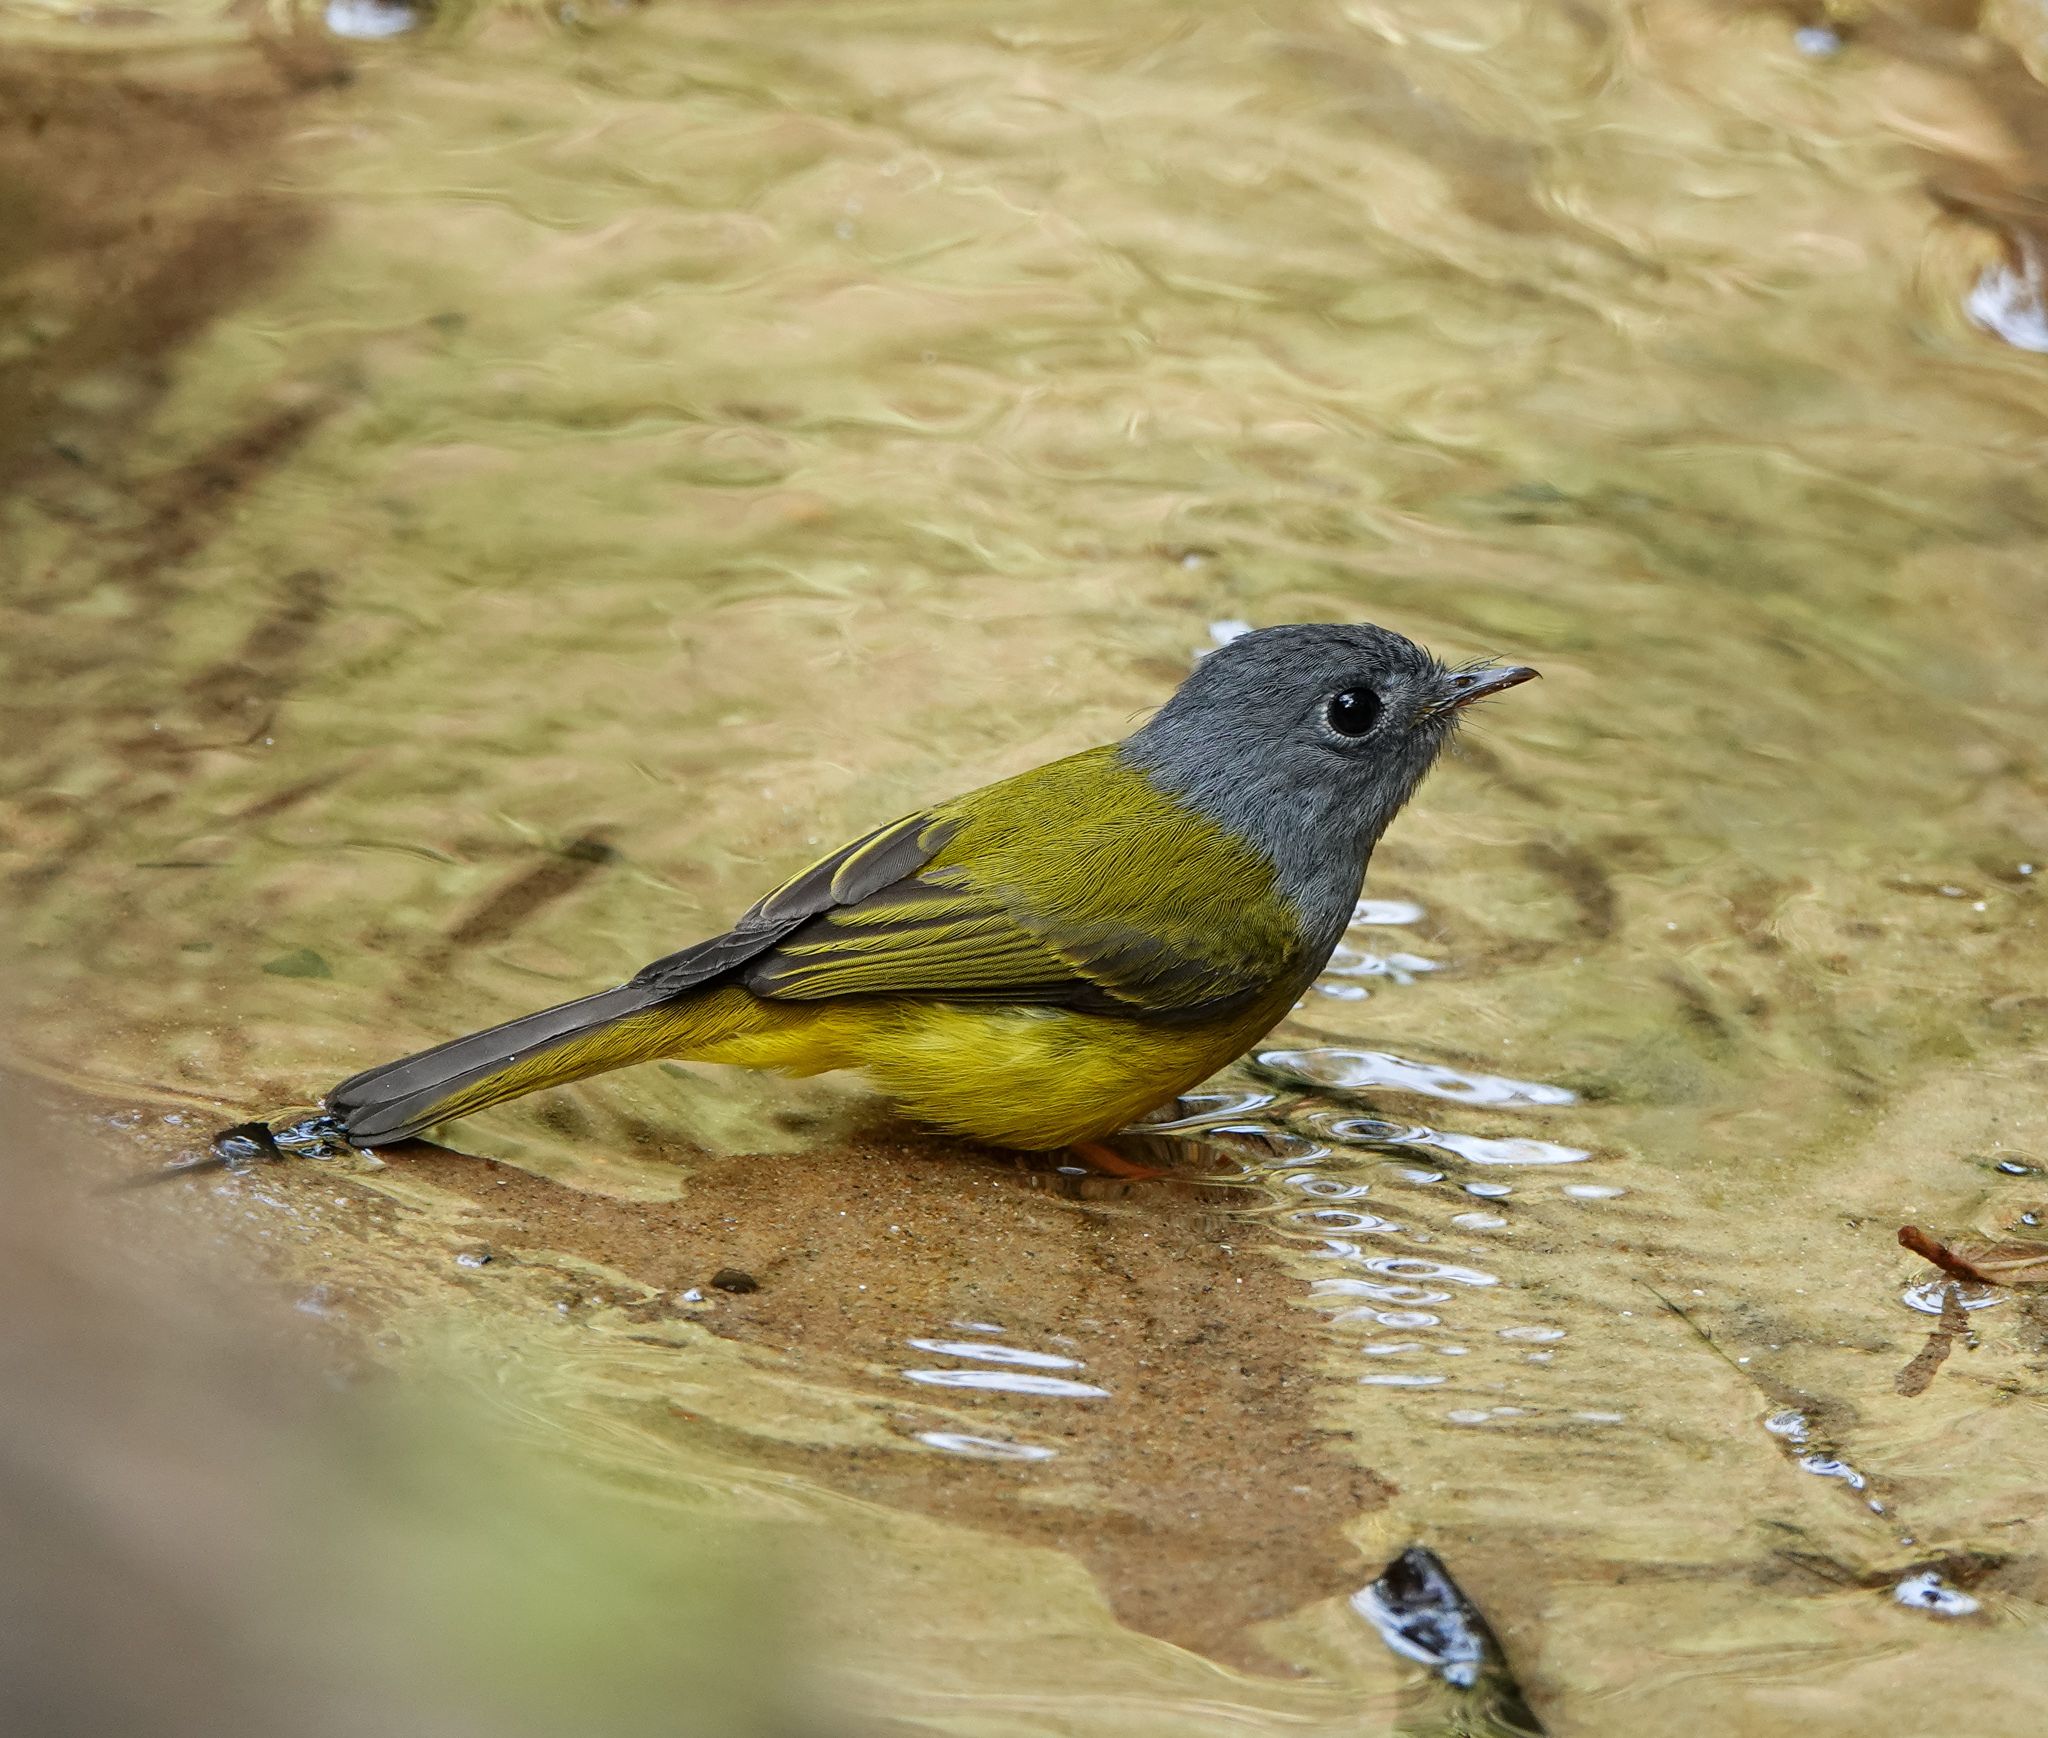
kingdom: Animalia
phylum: Chordata
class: Aves
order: Passeriformes
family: Stenostiridae
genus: Culicicapa
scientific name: Culicicapa ceylonensis
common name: Grey-headed canary-flycatcher
